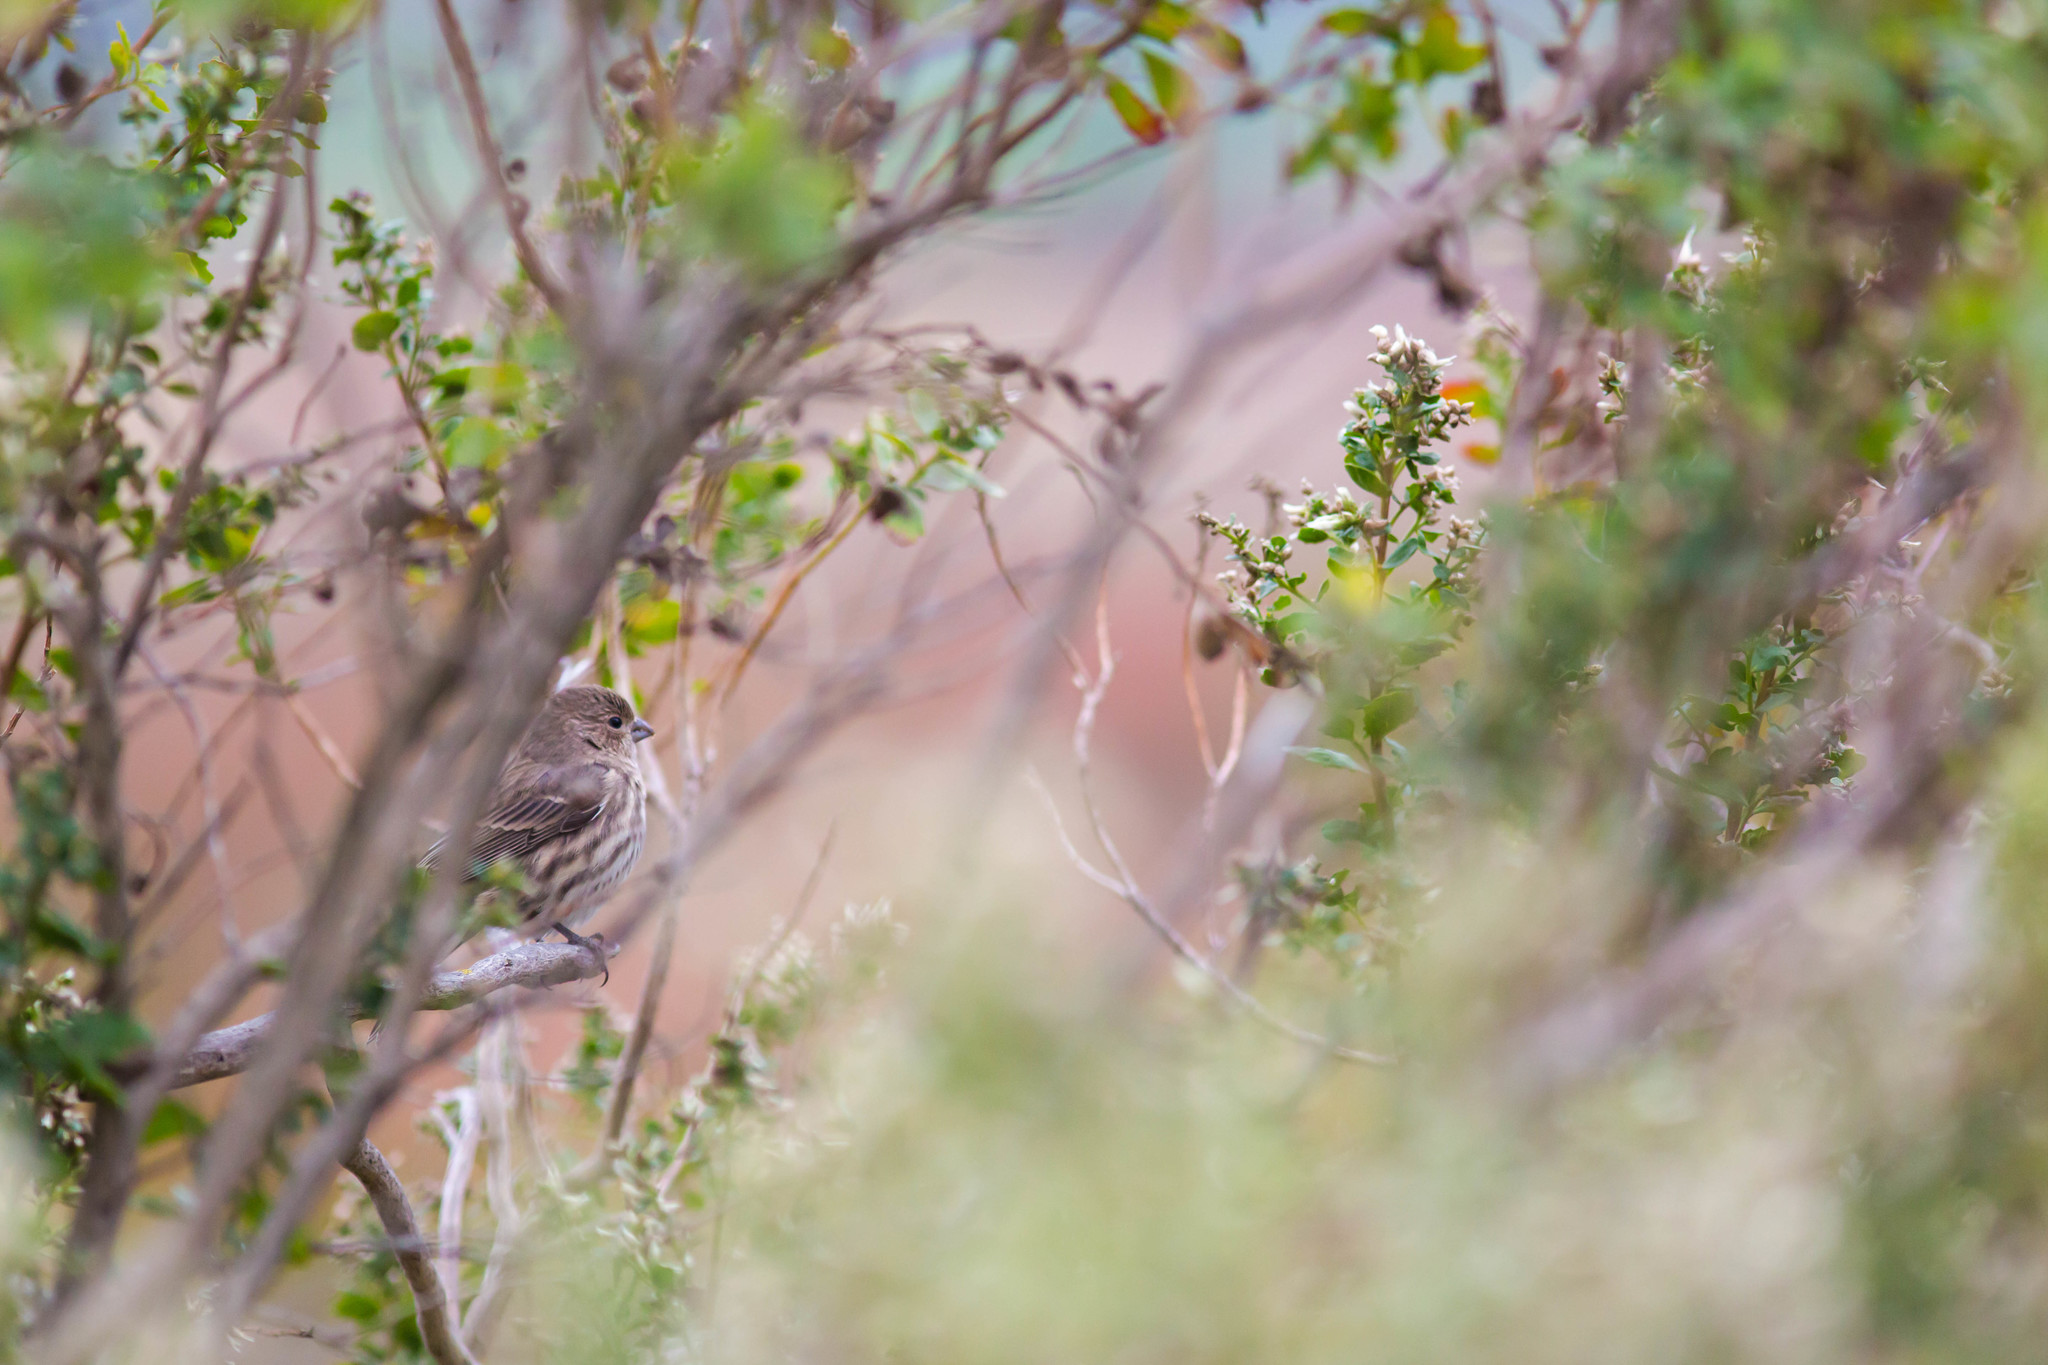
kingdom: Animalia
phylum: Chordata
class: Aves
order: Passeriformes
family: Fringillidae
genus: Haemorhous
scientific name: Haemorhous mexicanus
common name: House finch
